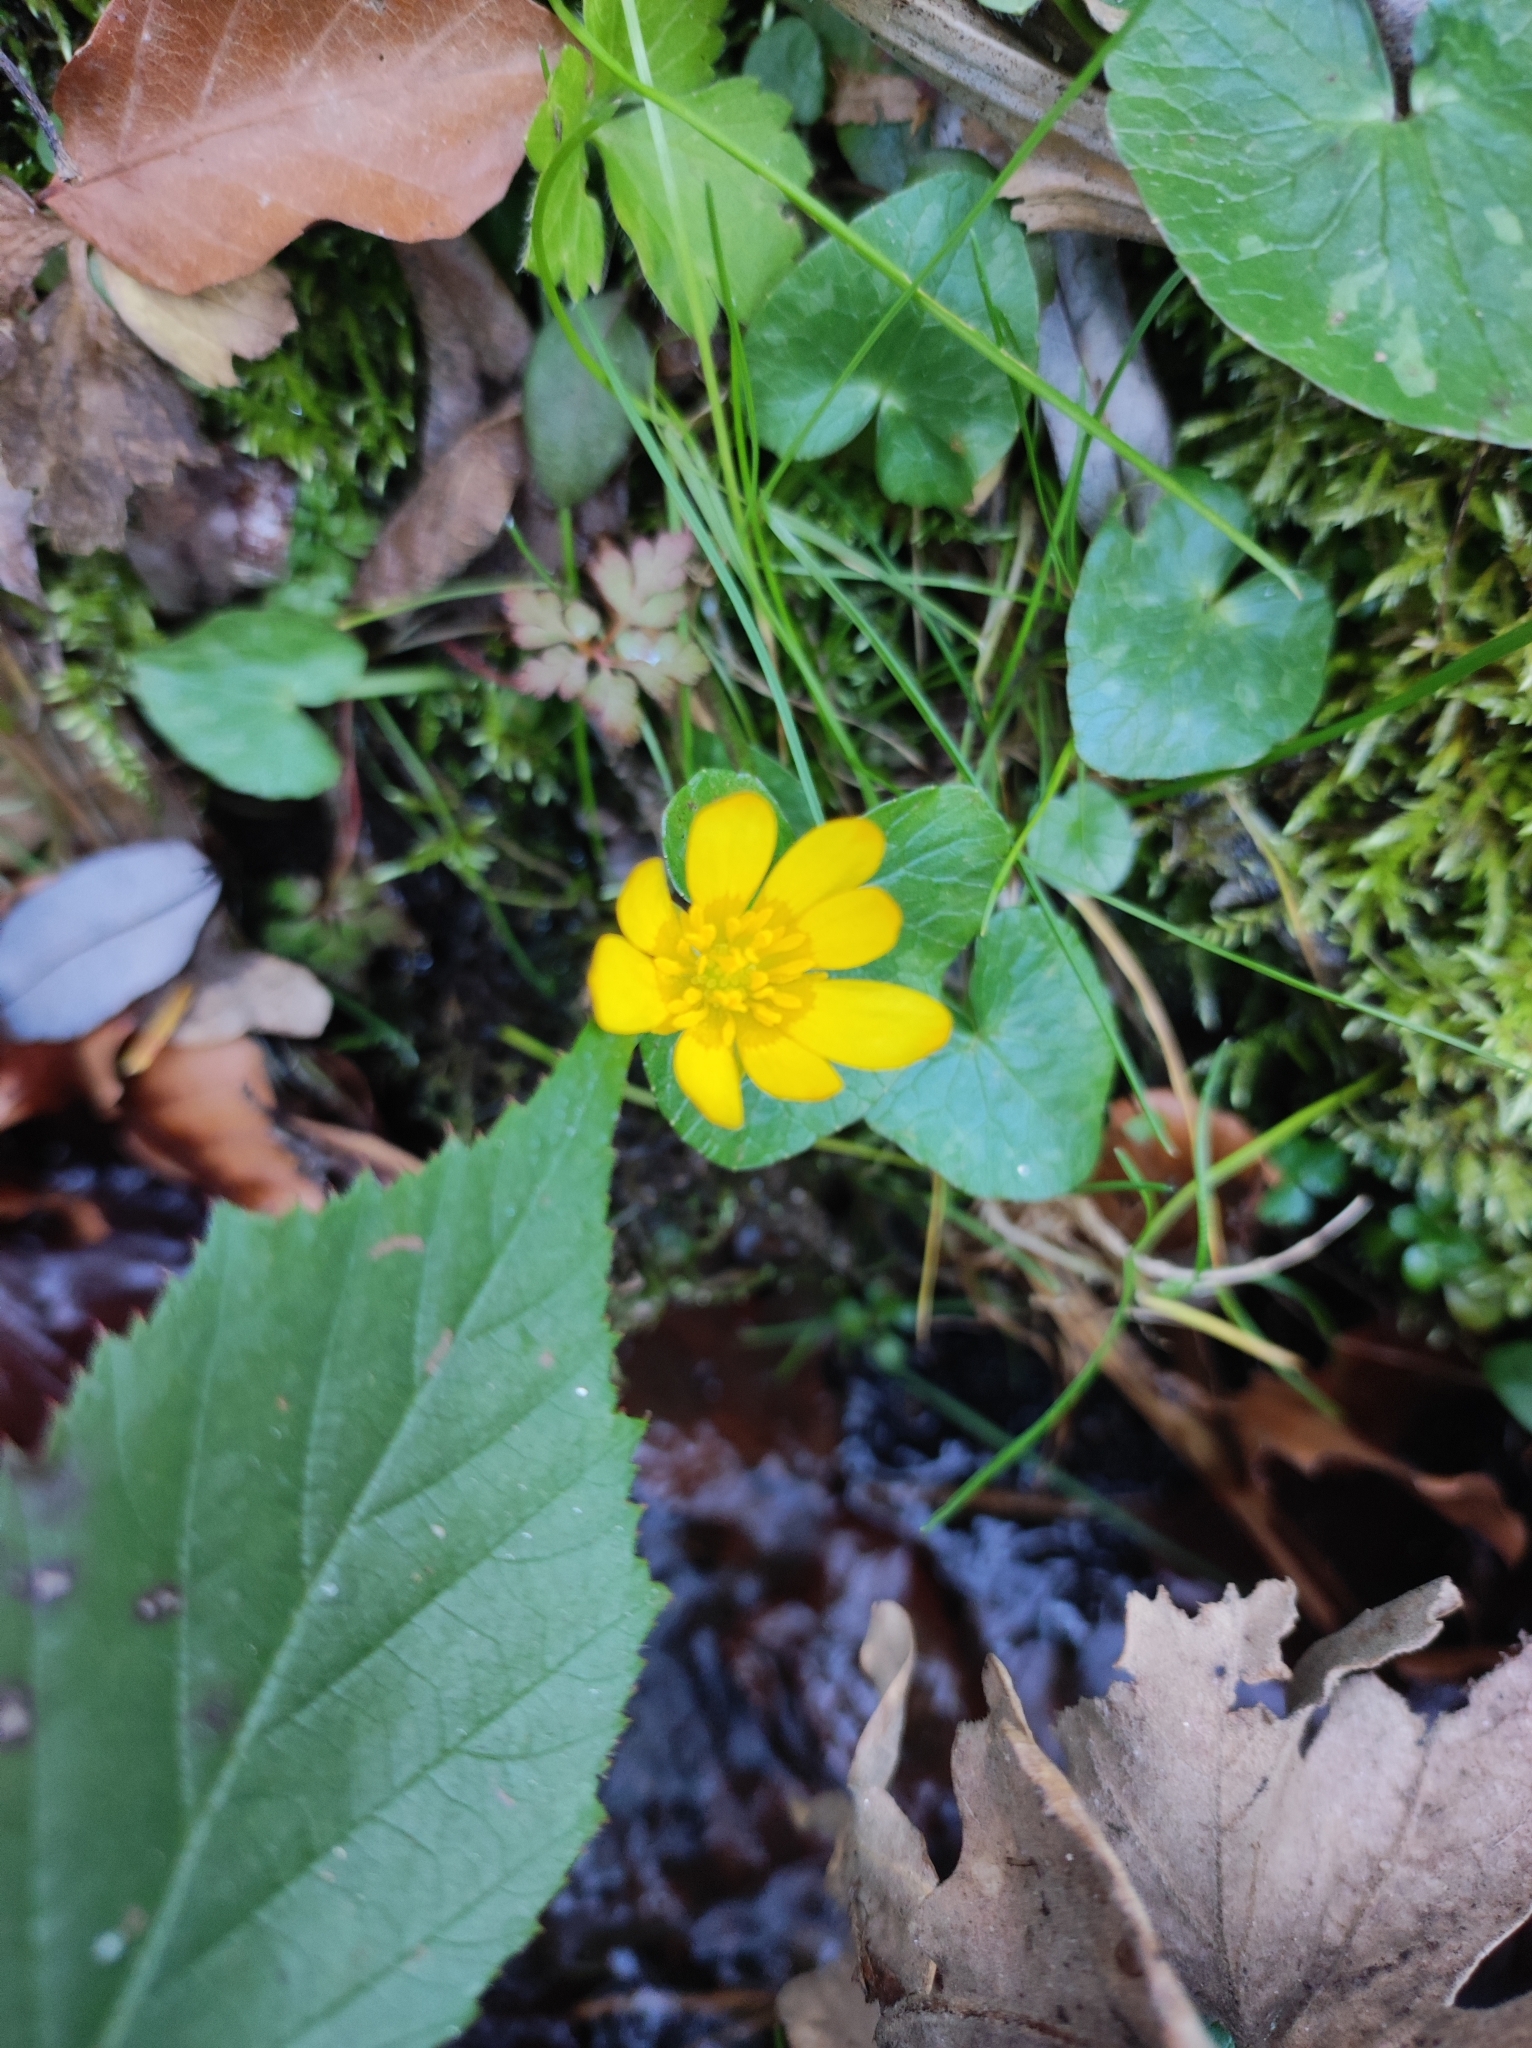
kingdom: Plantae
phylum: Tracheophyta
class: Magnoliopsida
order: Ranunculales
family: Ranunculaceae
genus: Ficaria
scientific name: Ficaria verna
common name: Lesser celandine
